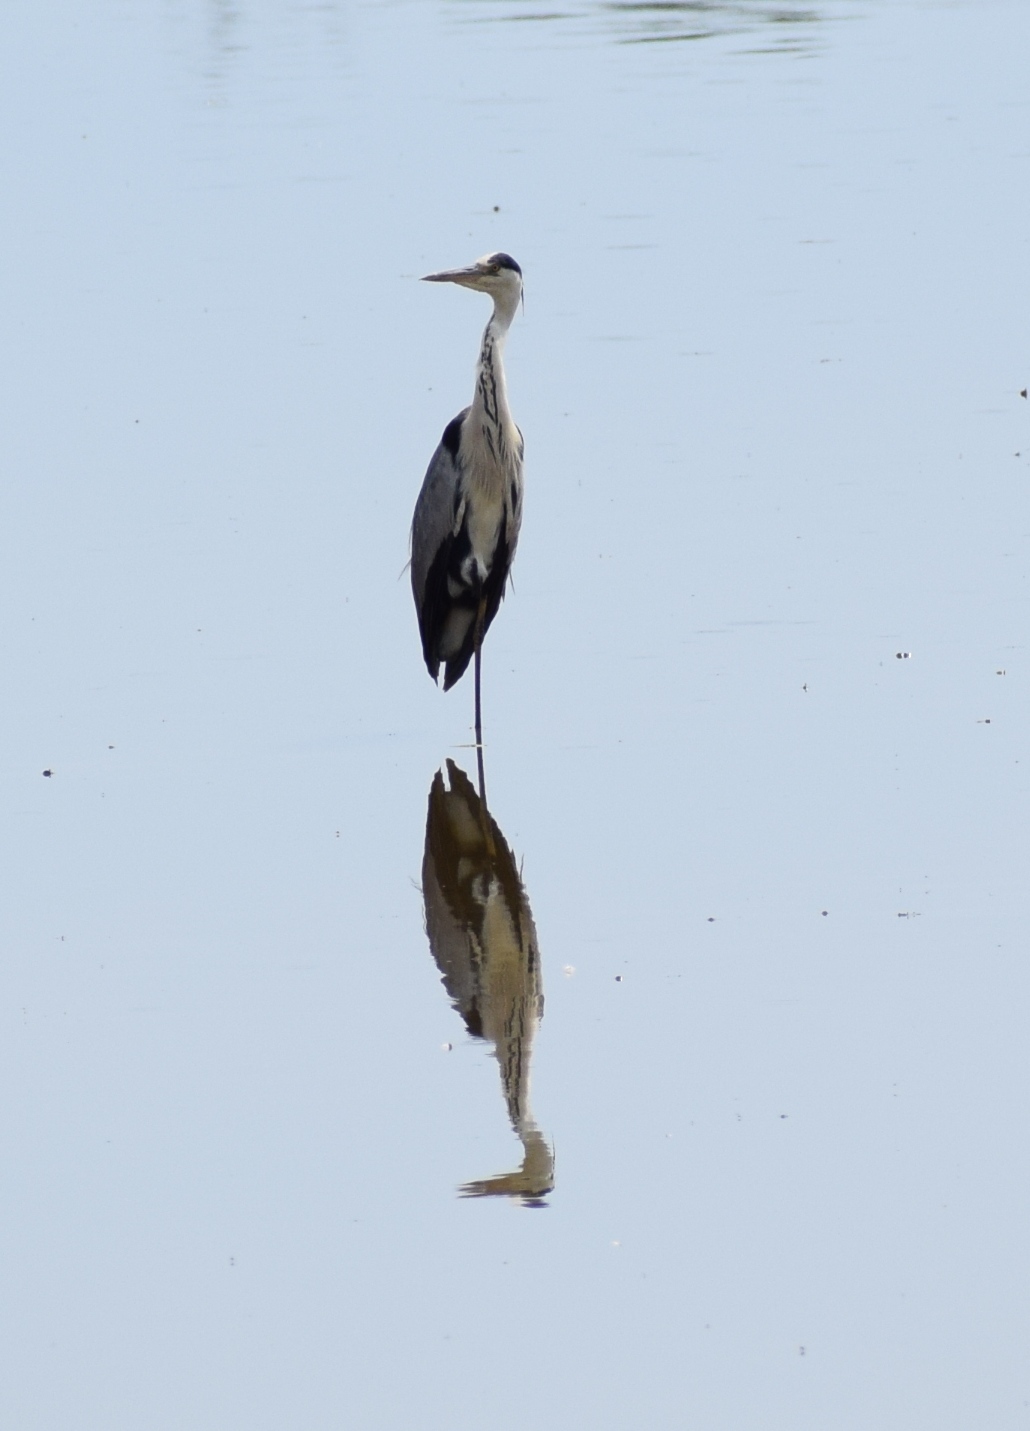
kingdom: Animalia
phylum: Chordata
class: Aves
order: Pelecaniformes
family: Ardeidae
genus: Ardea
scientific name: Ardea cinerea
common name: Grey heron
